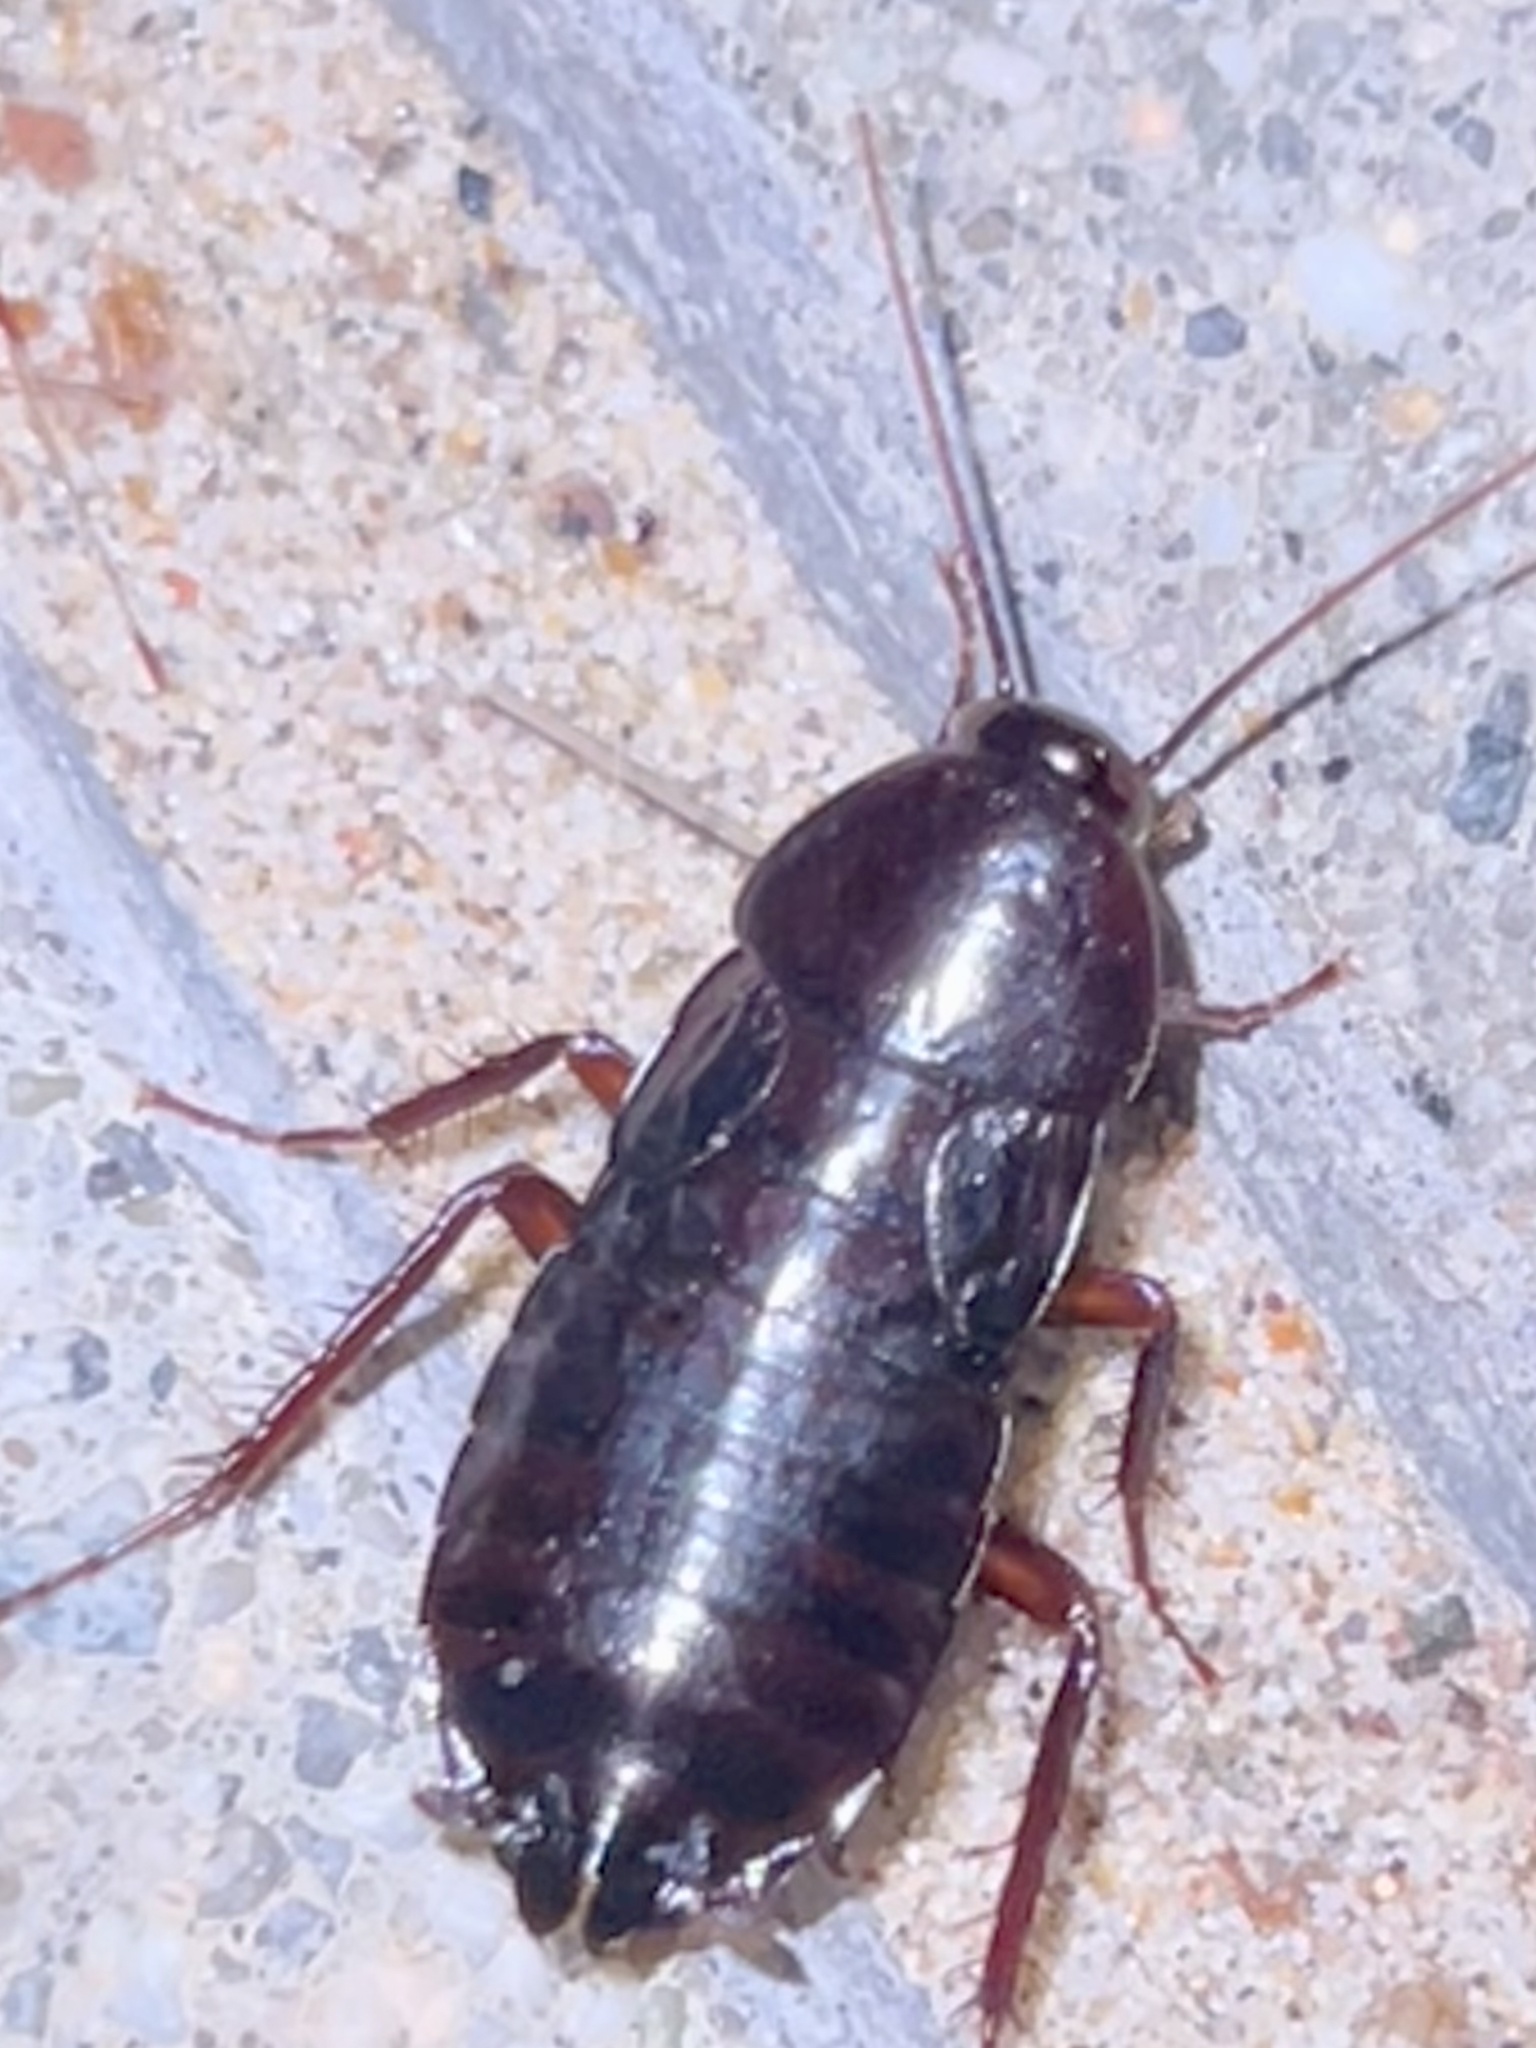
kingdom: Animalia
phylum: Arthropoda
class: Insecta
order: Blattodea
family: Blattidae
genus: Blatta
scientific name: Blatta orientalis
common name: Oriental cockroach
